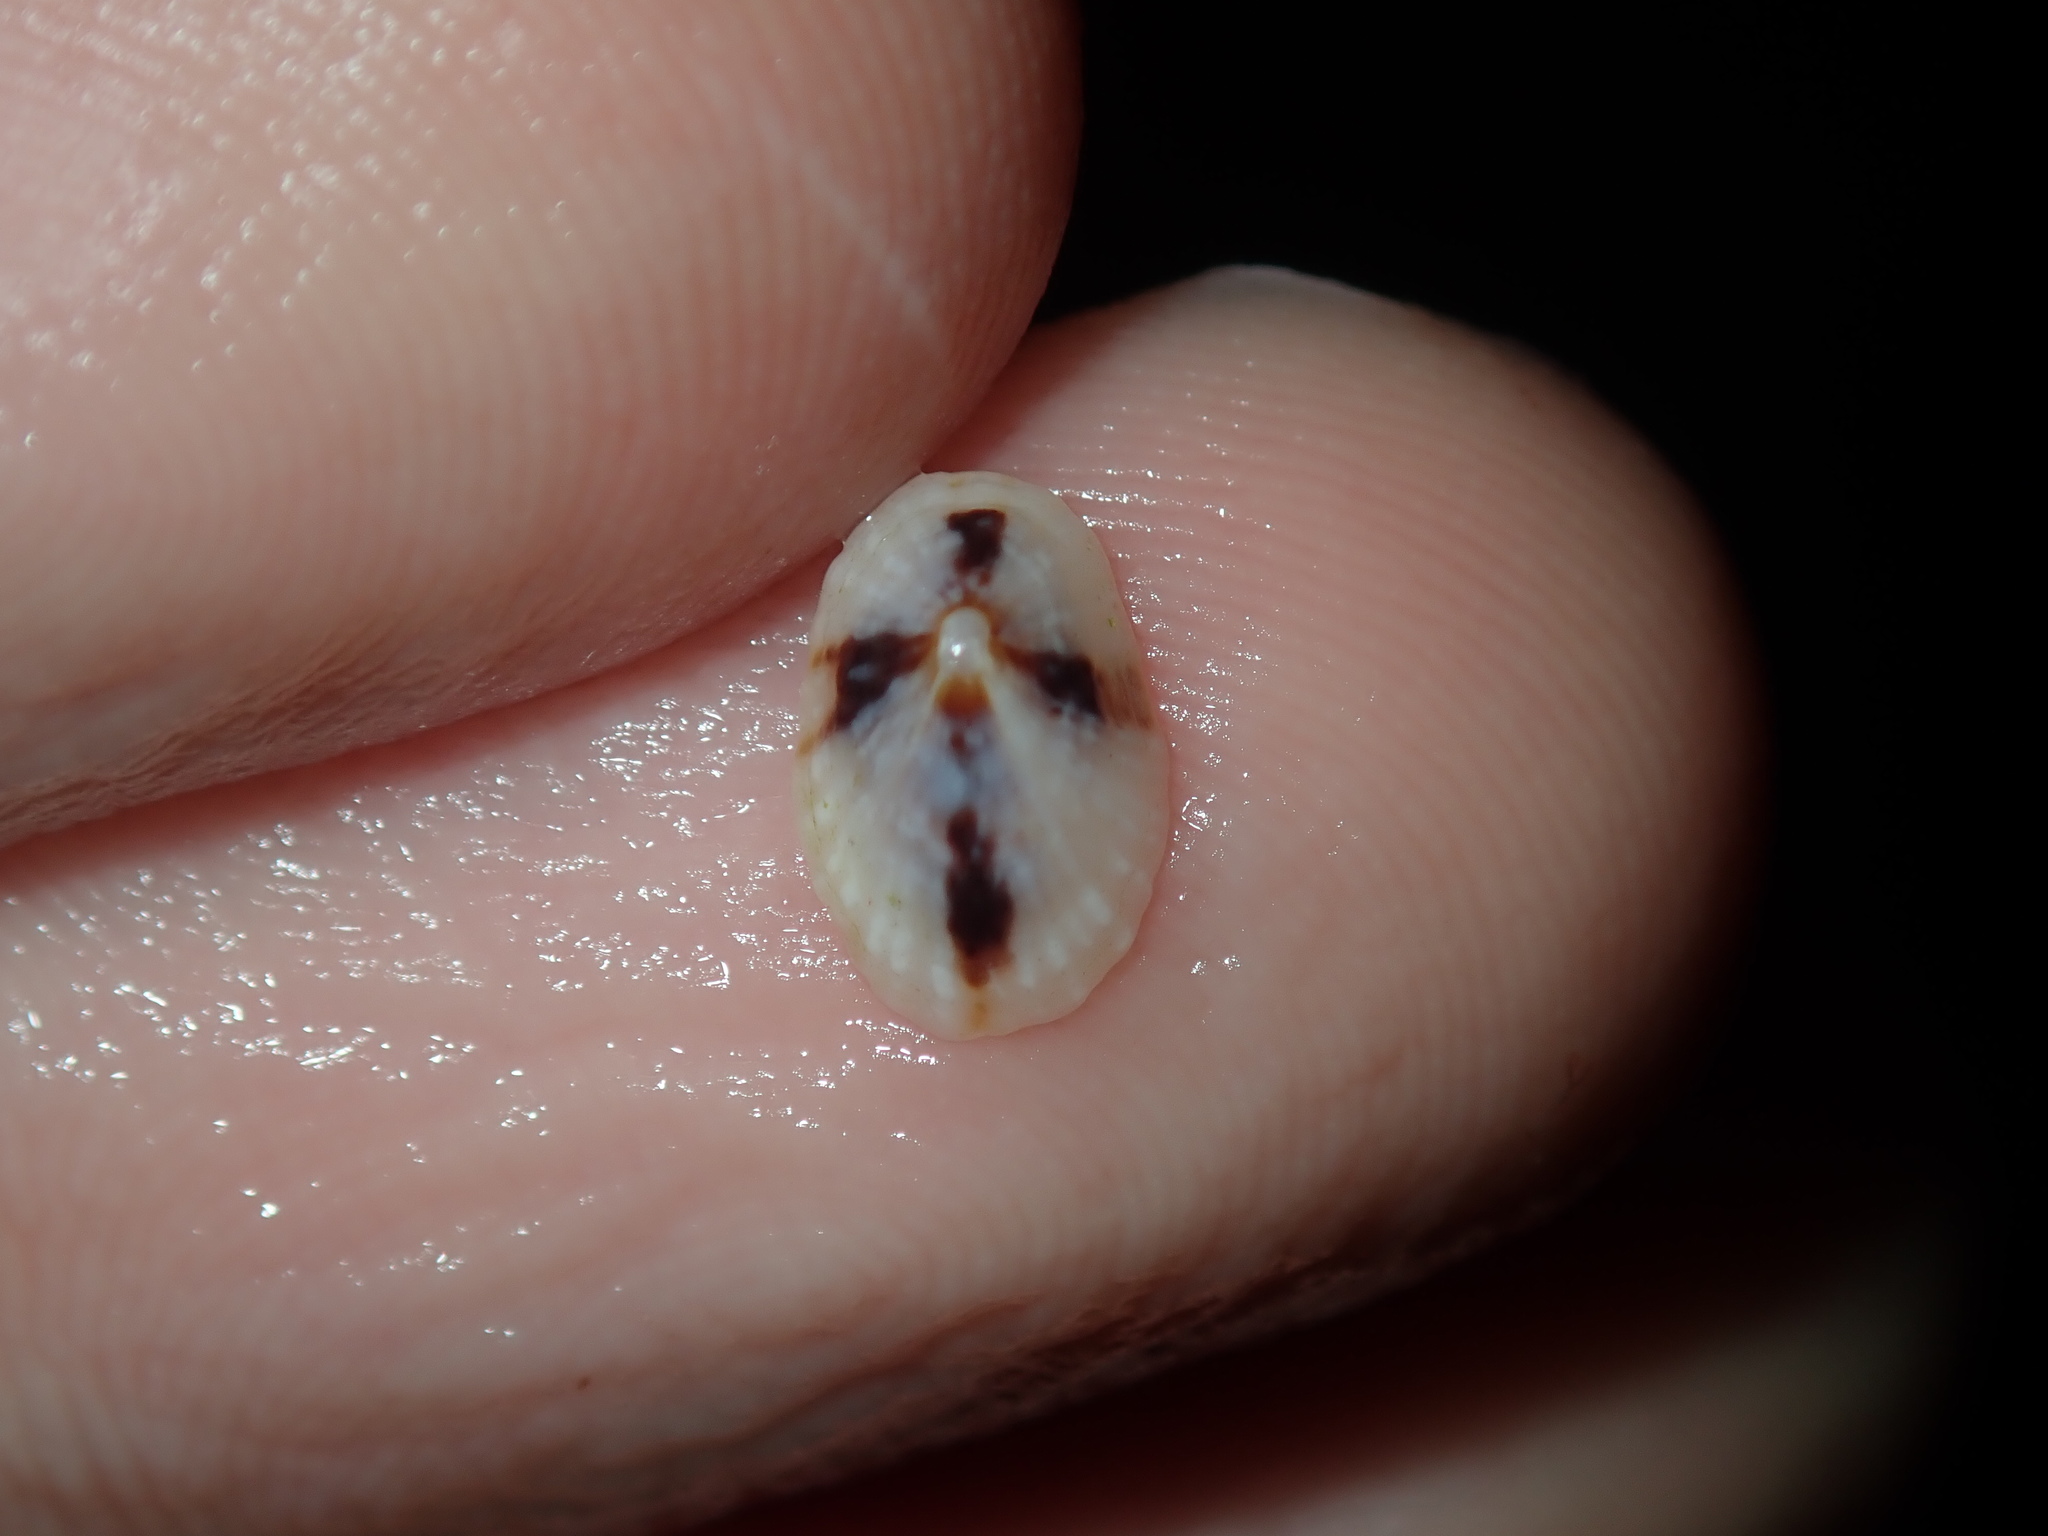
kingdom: Animalia
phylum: Mollusca
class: Gastropoda
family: Lottiidae
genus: Patelloida
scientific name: Patelloida mufria
